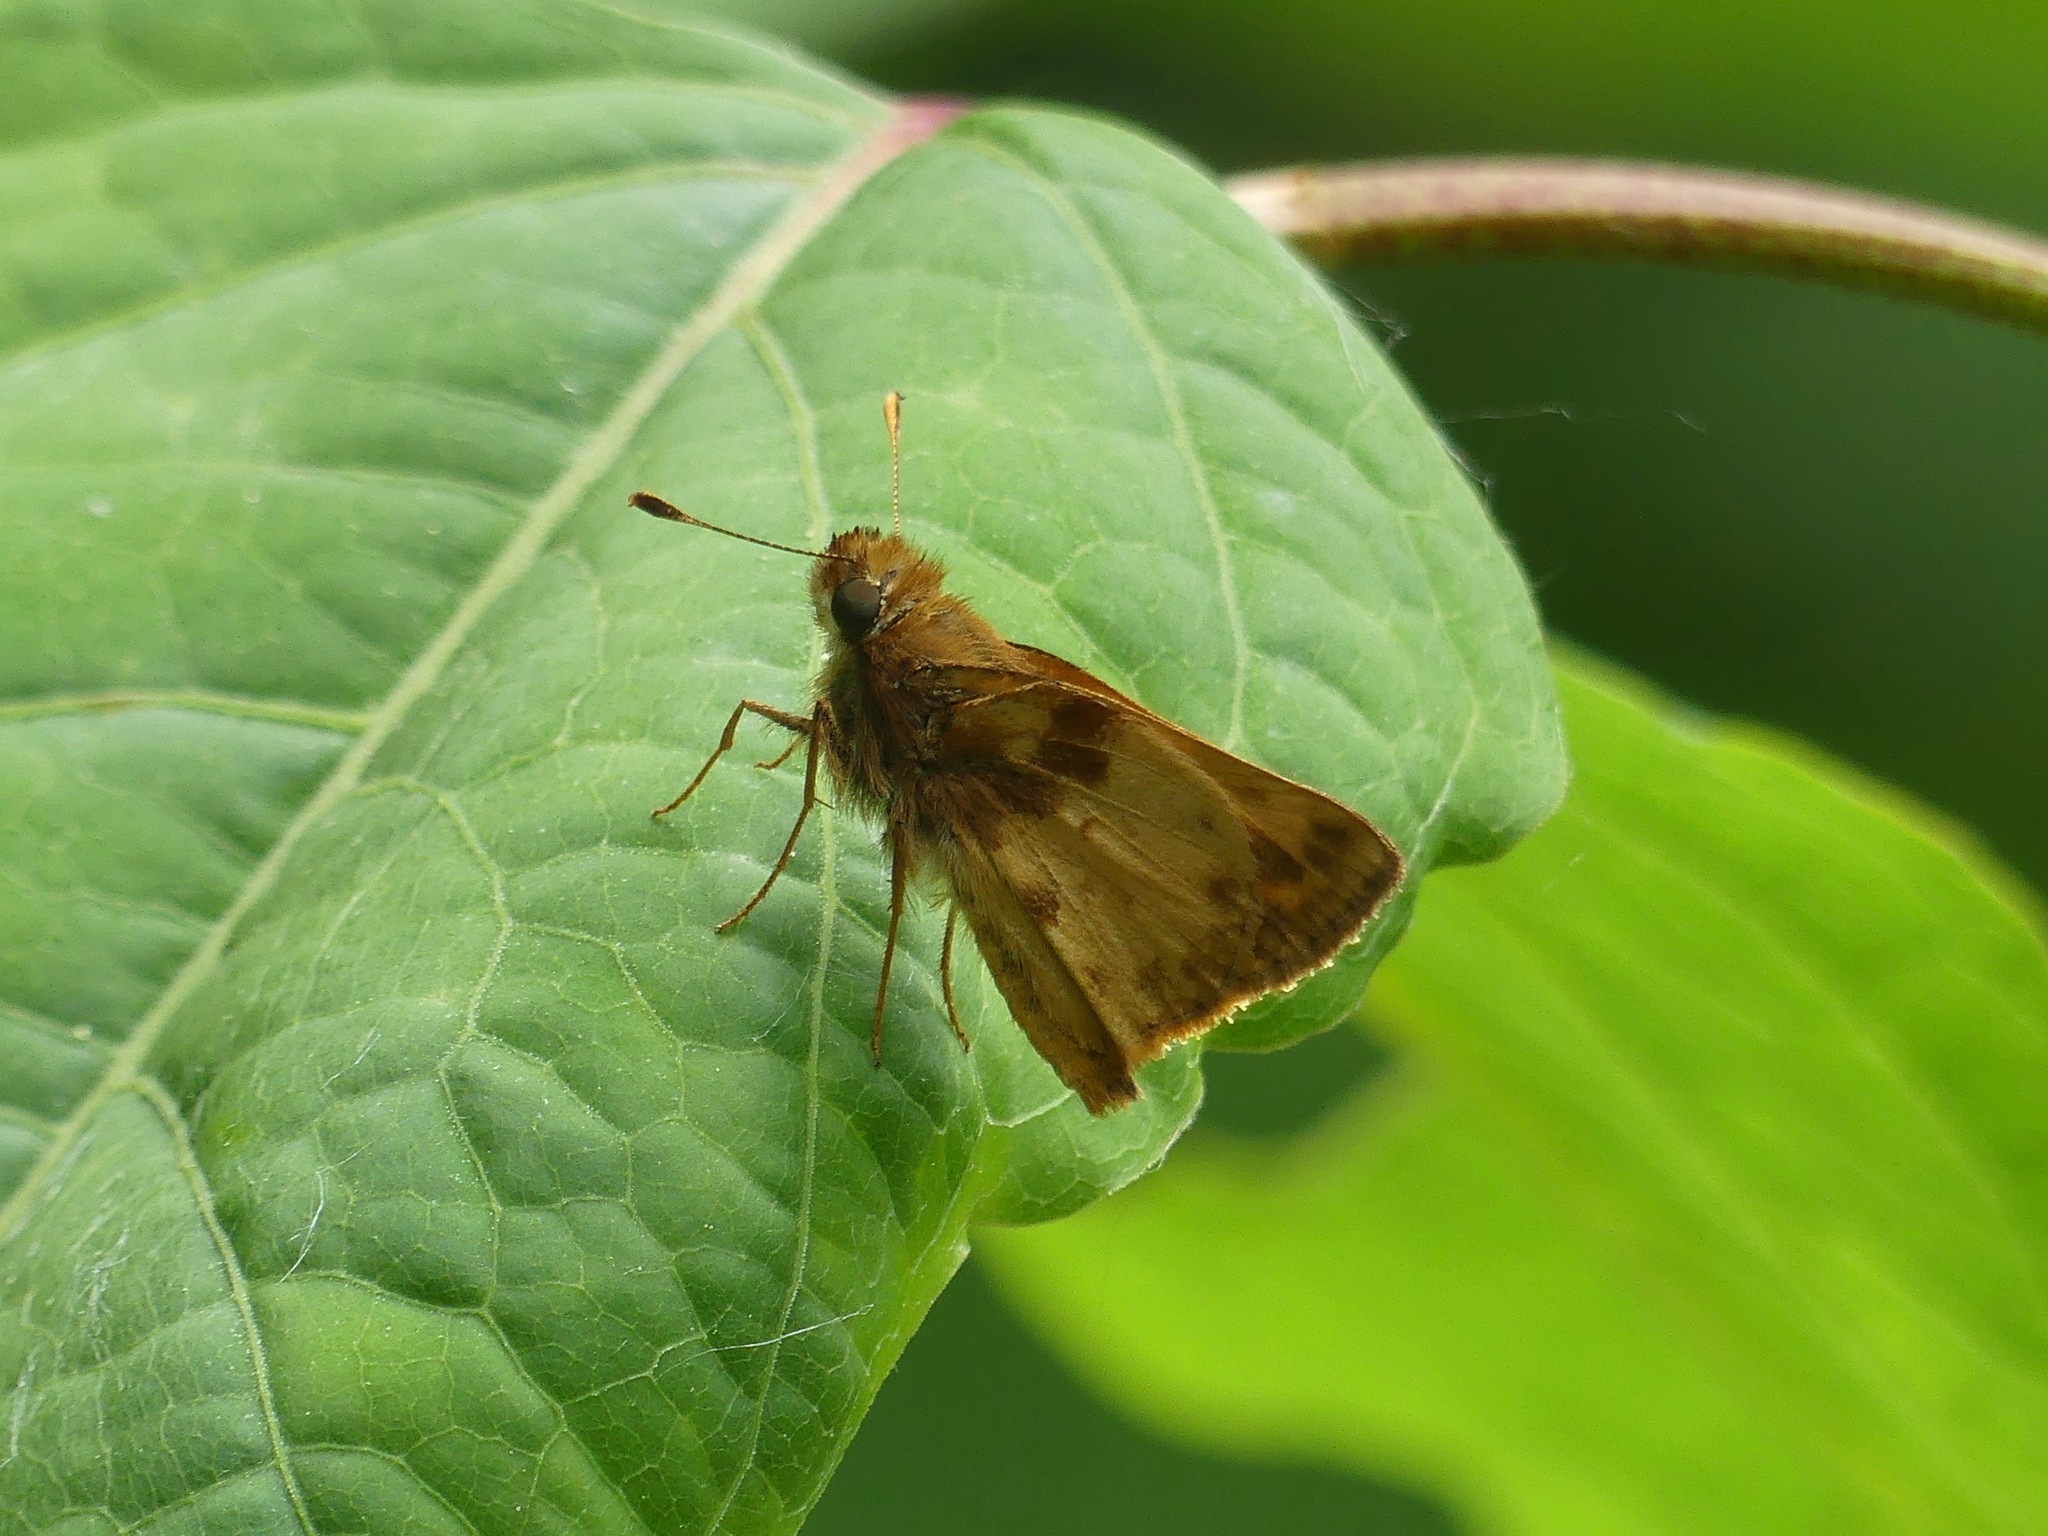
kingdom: Animalia
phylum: Arthropoda
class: Insecta
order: Lepidoptera
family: Hesperiidae
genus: Lon
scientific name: Lon zabulon
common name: Zabulon skipper
